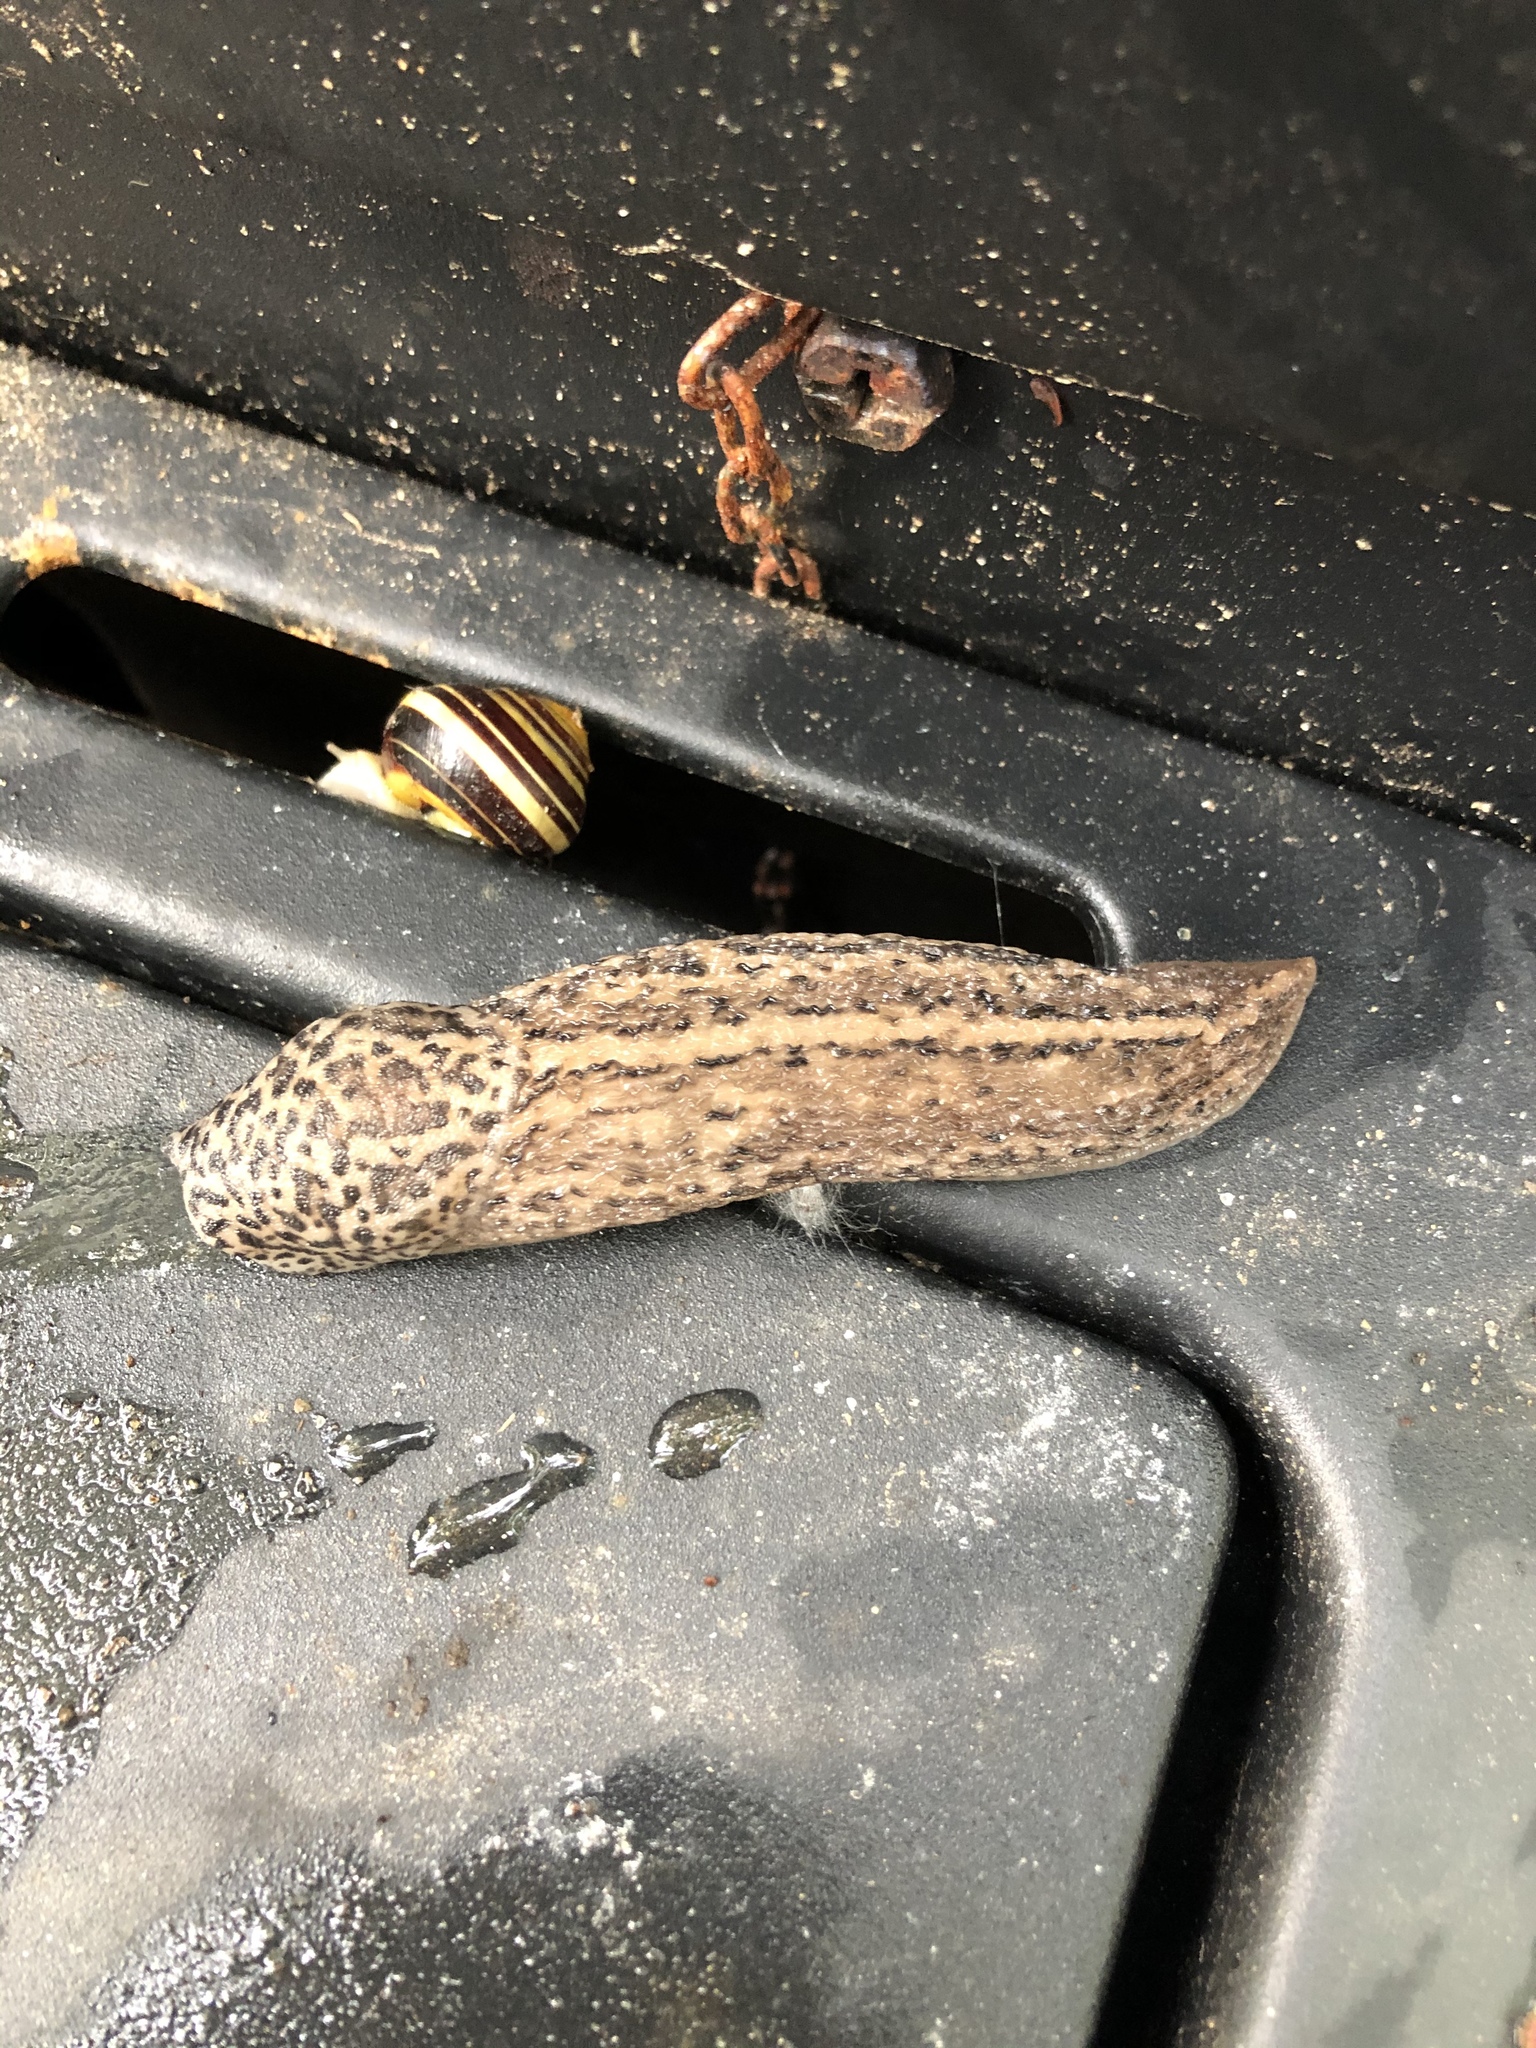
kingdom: Animalia
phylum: Mollusca
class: Gastropoda
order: Stylommatophora
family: Limacidae
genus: Limax
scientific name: Limax maximus
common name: Great grey slug
